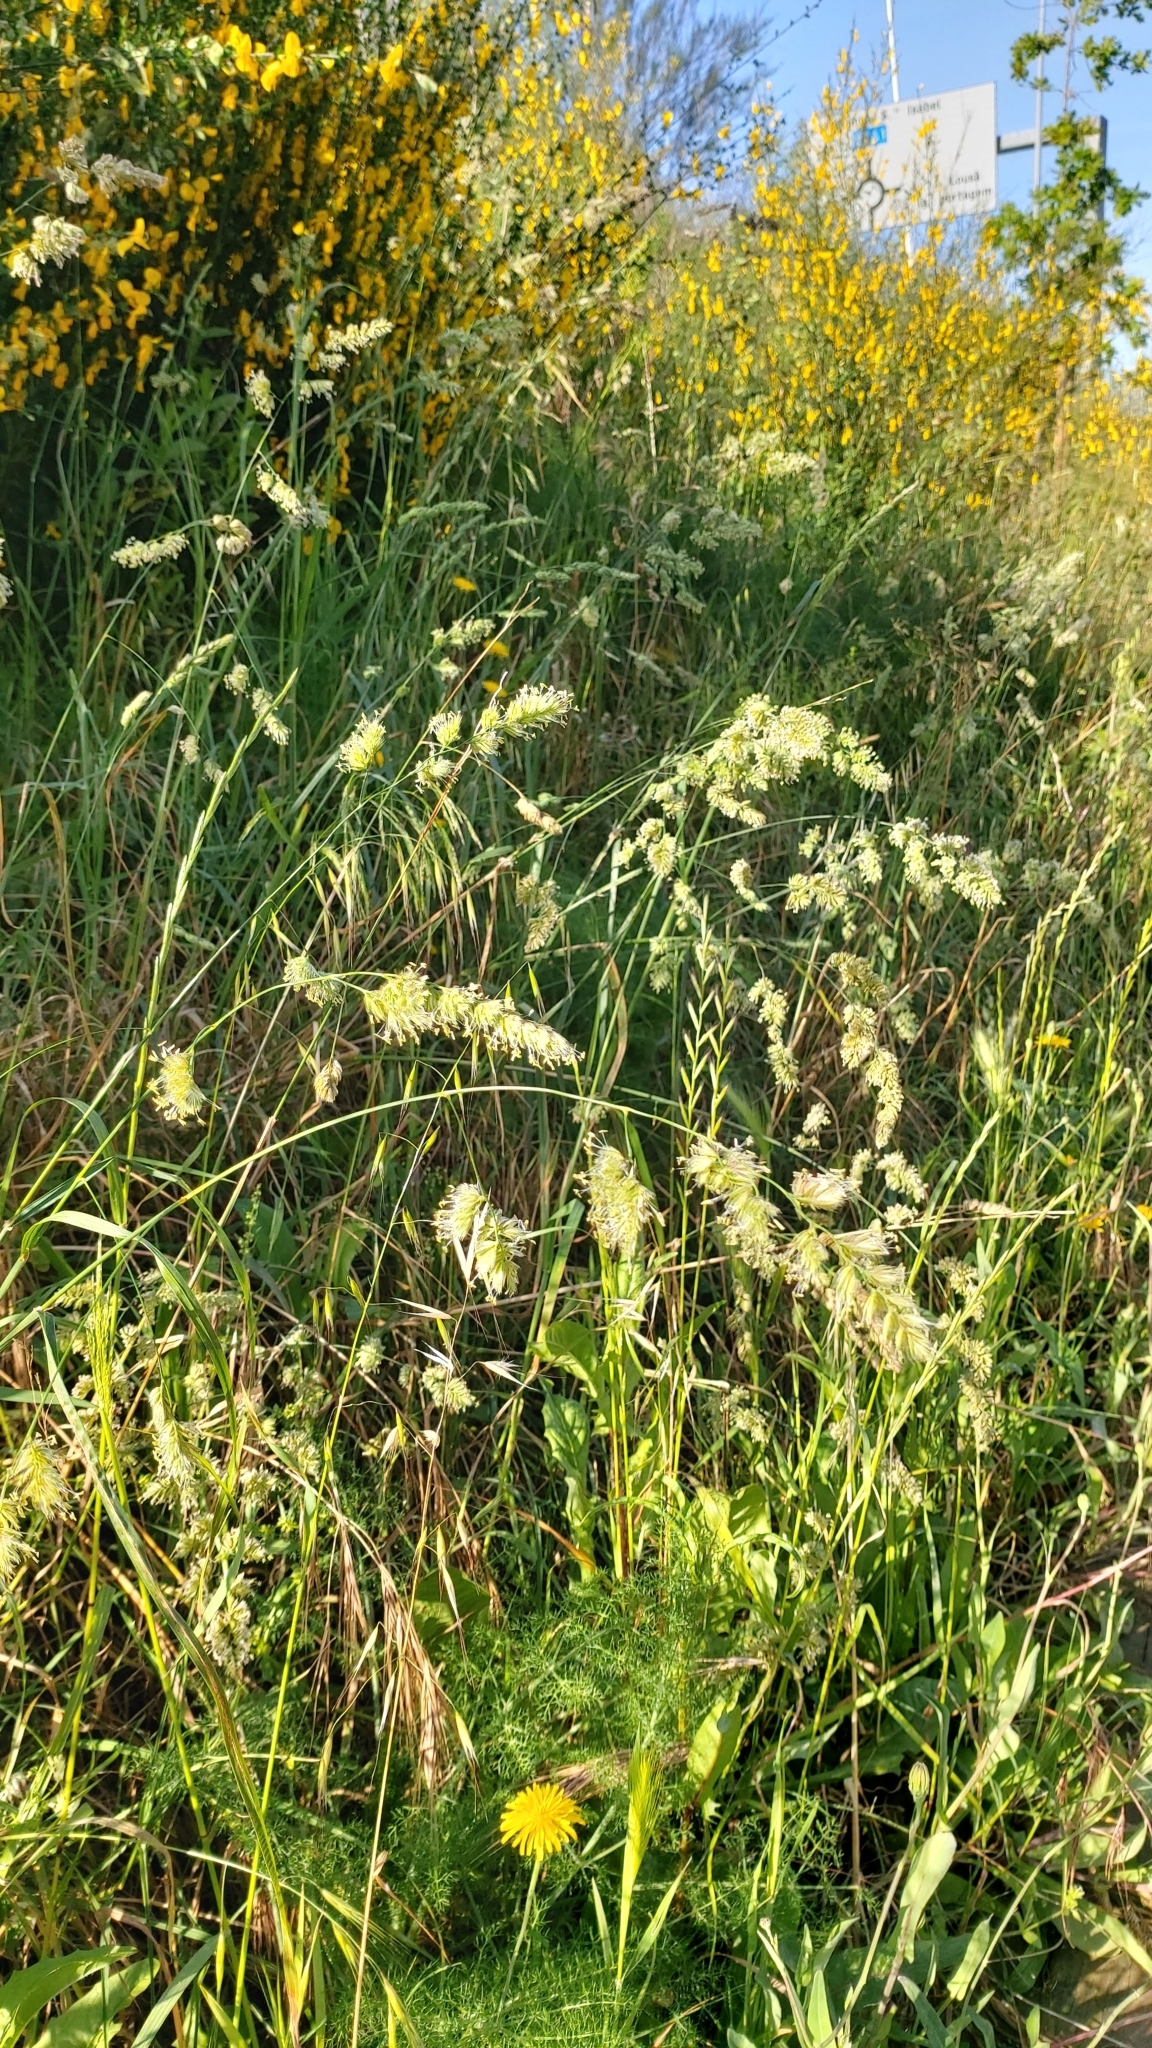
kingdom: Plantae
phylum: Tracheophyta
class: Liliopsida
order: Poales
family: Poaceae
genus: Dactylis
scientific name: Dactylis glomerata
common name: Orchardgrass
